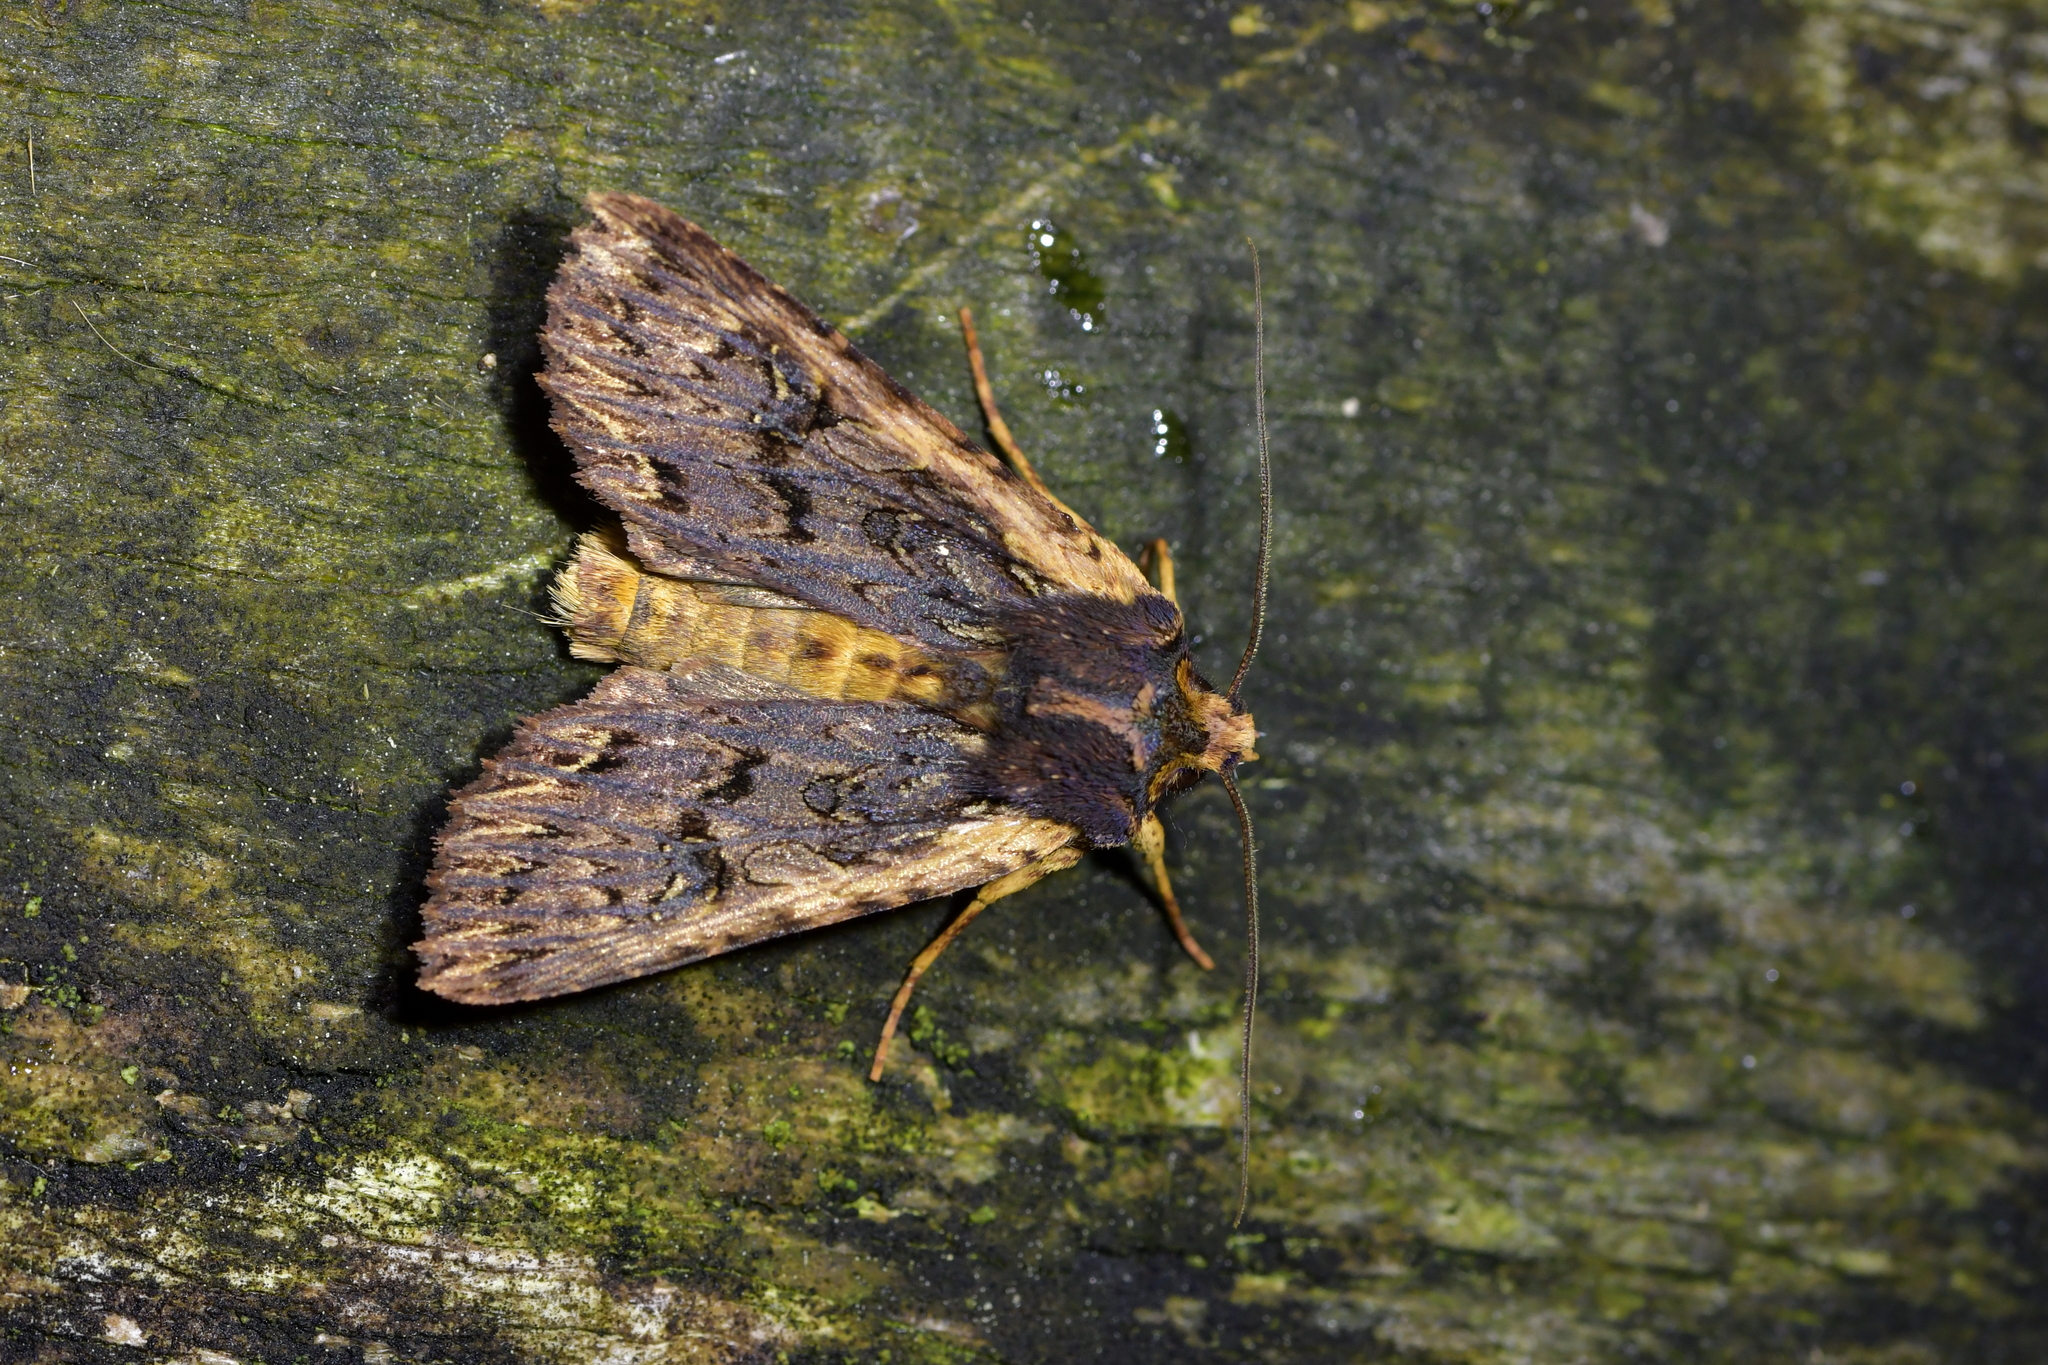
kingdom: Animalia
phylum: Arthropoda
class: Insecta
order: Lepidoptera
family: Noctuidae
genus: Meterana
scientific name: Meterana alcyone
